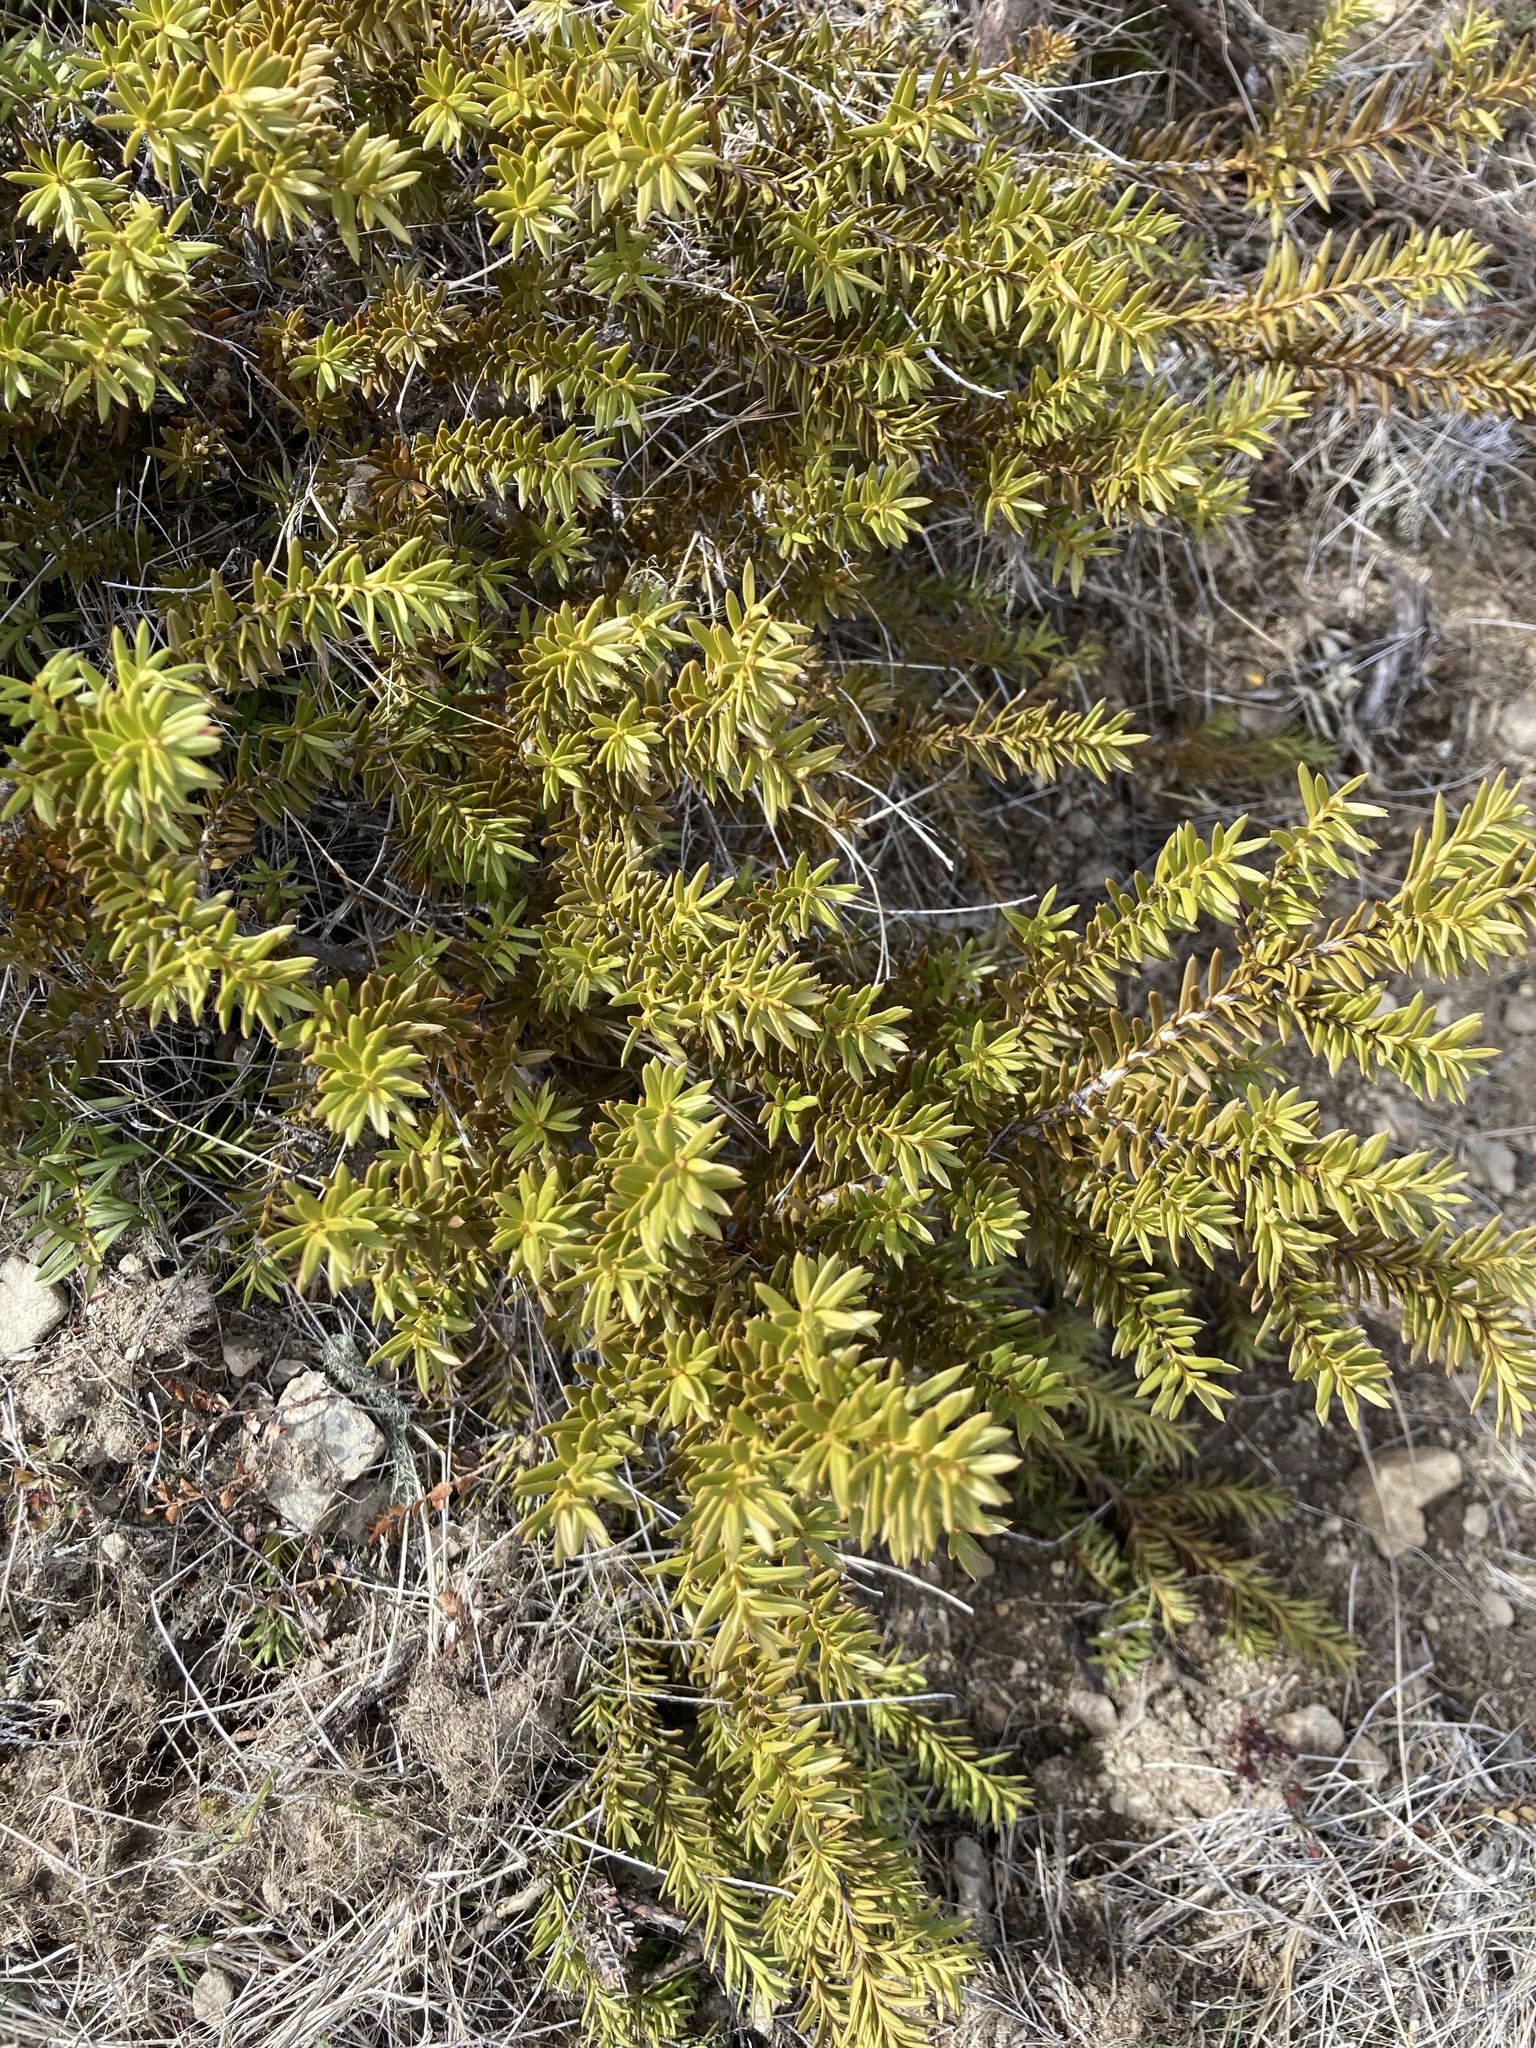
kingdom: Plantae
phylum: Tracheophyta
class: Pinopsida
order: Pinales
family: Podocarpaceae
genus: Podocarpus
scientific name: Podocarpus nivalis
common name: Alpine totara
